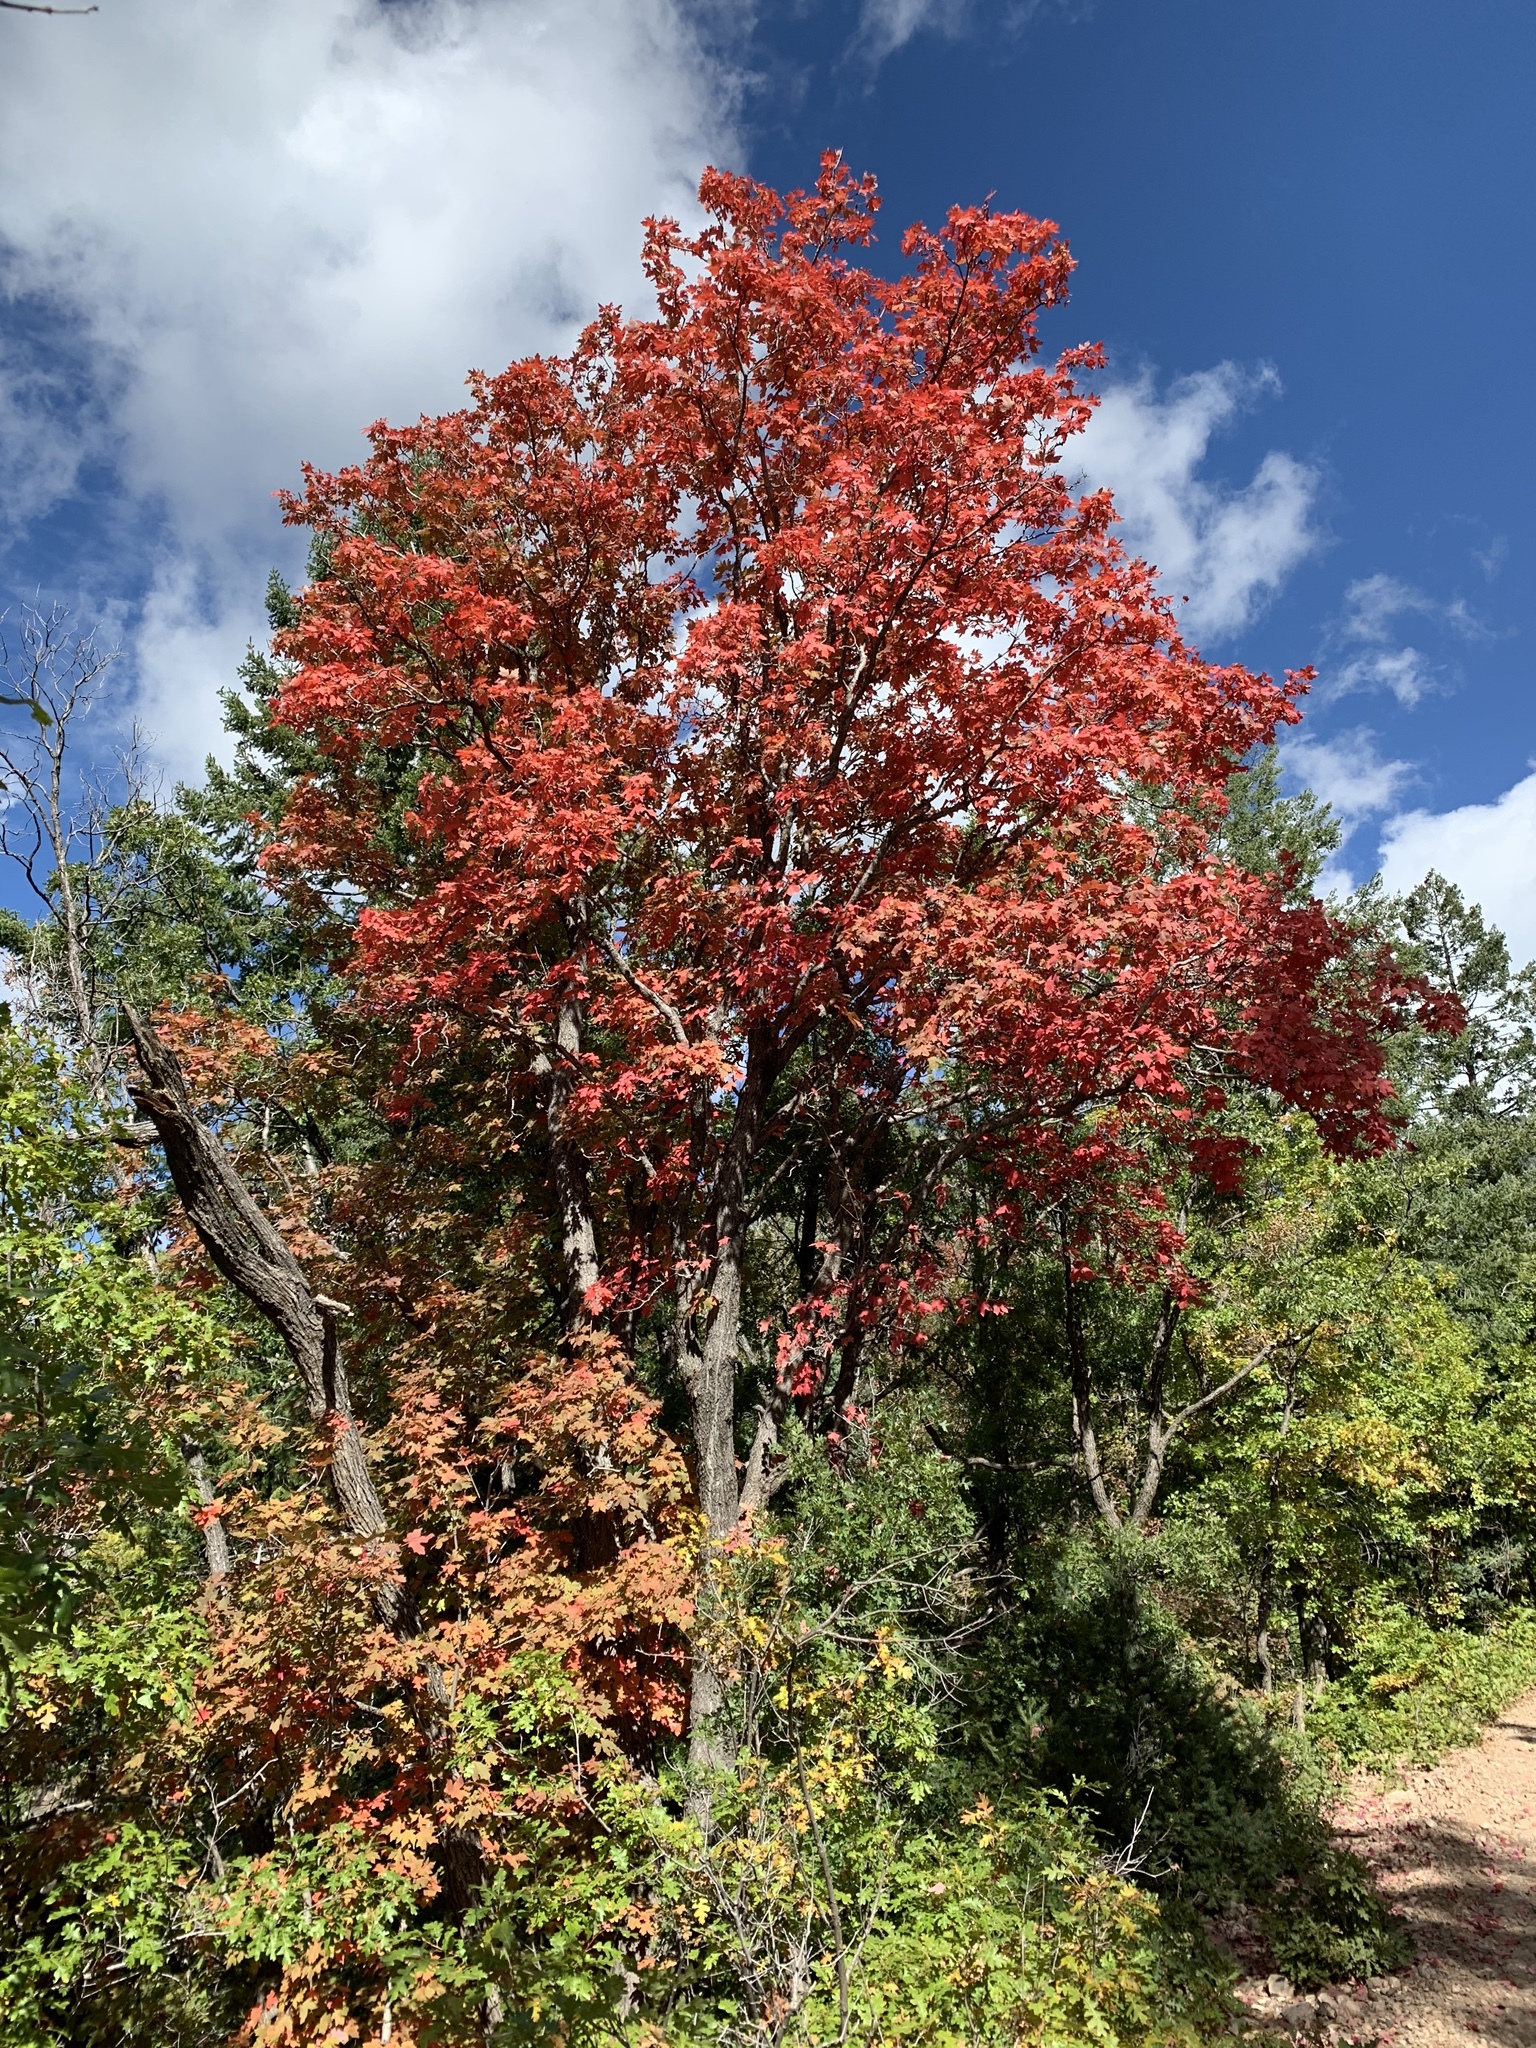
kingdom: Plantae
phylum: Tracheophyta
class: Magnoliopsida
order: Sapindales
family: Sapindaceae
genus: Acer
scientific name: Acer grandidentatum
